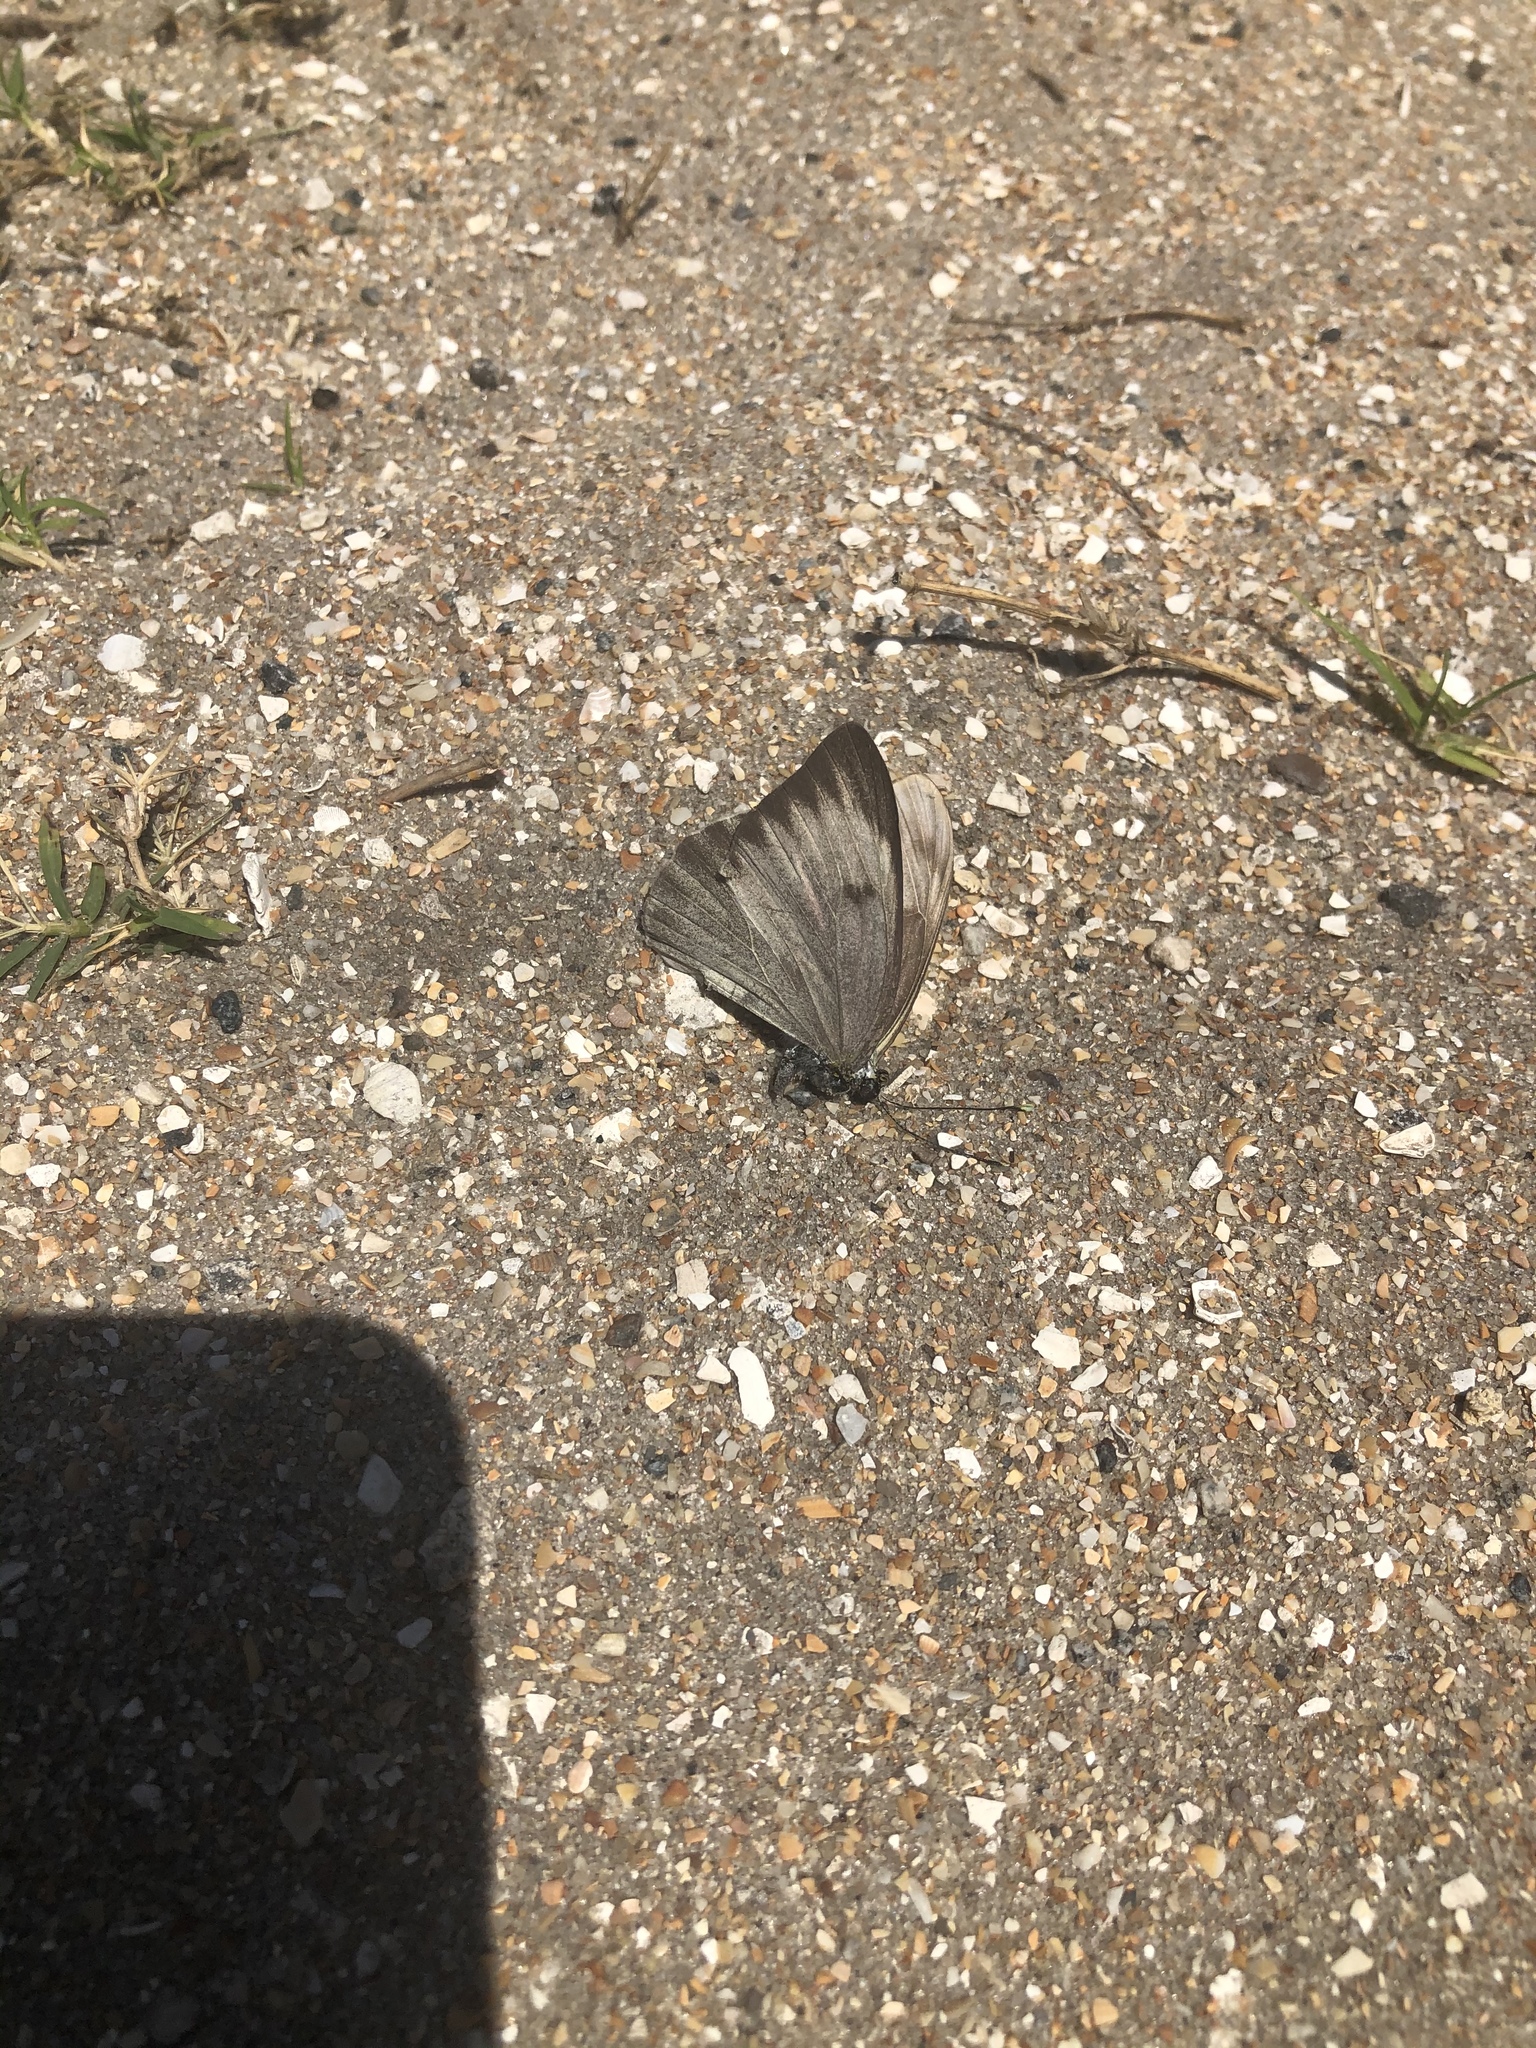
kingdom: Animalia
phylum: Arthropoda
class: Insecta
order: Lepidoptera
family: Pieridae
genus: Ascia
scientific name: Ascia monuste
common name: Great southern white
